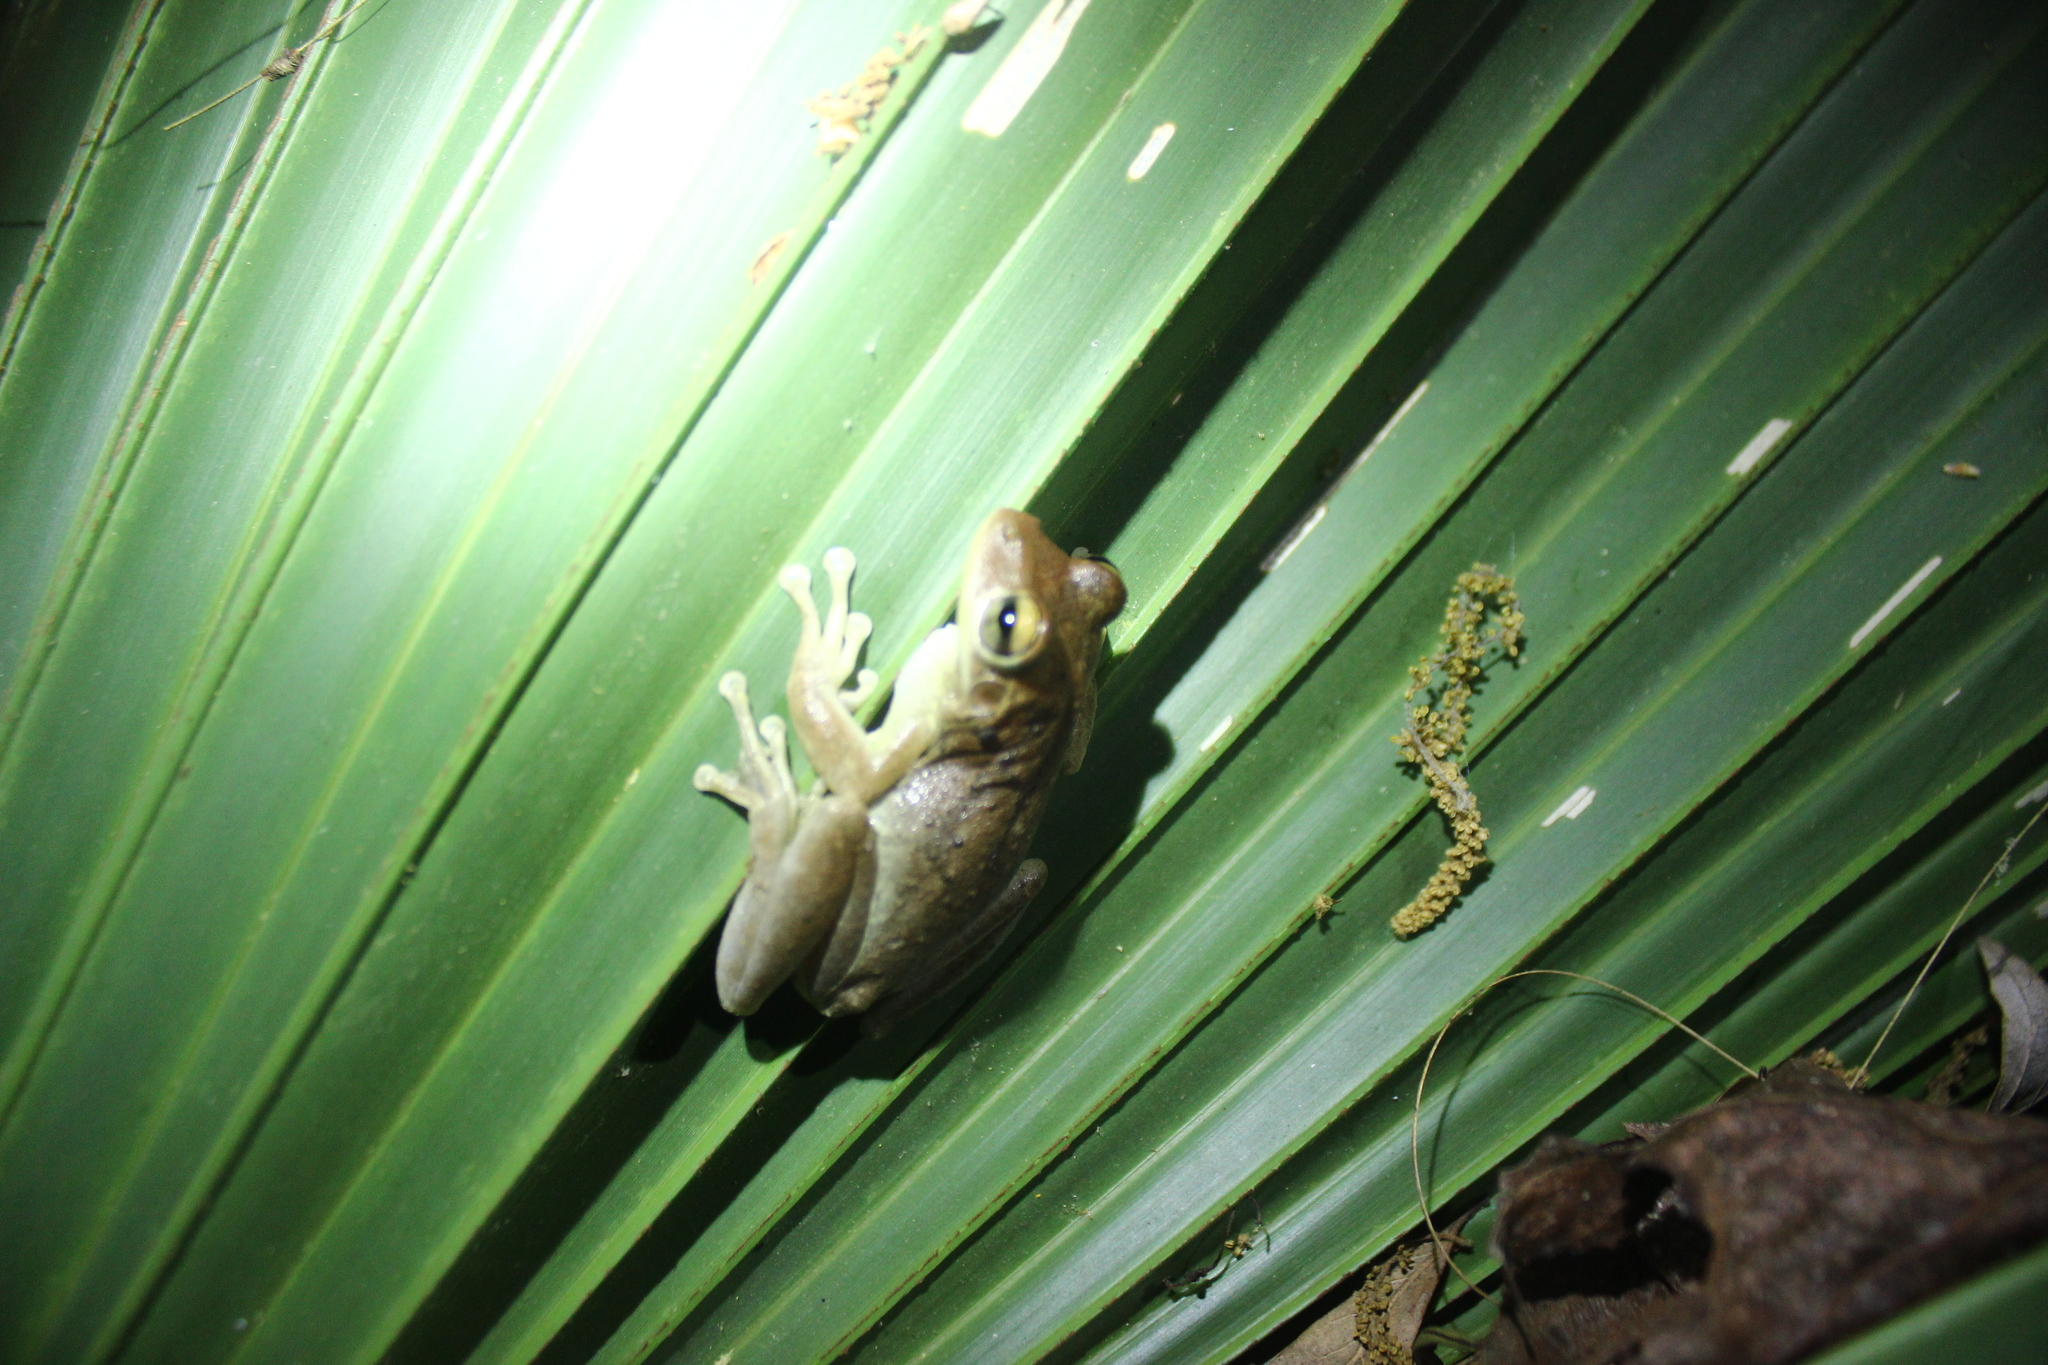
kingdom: Animalia
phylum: Chordata
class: Amphibia
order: Anura
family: Hylidae
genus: Osteopilus
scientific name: Osteopilus septentrionalis
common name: Cuban treefrog
